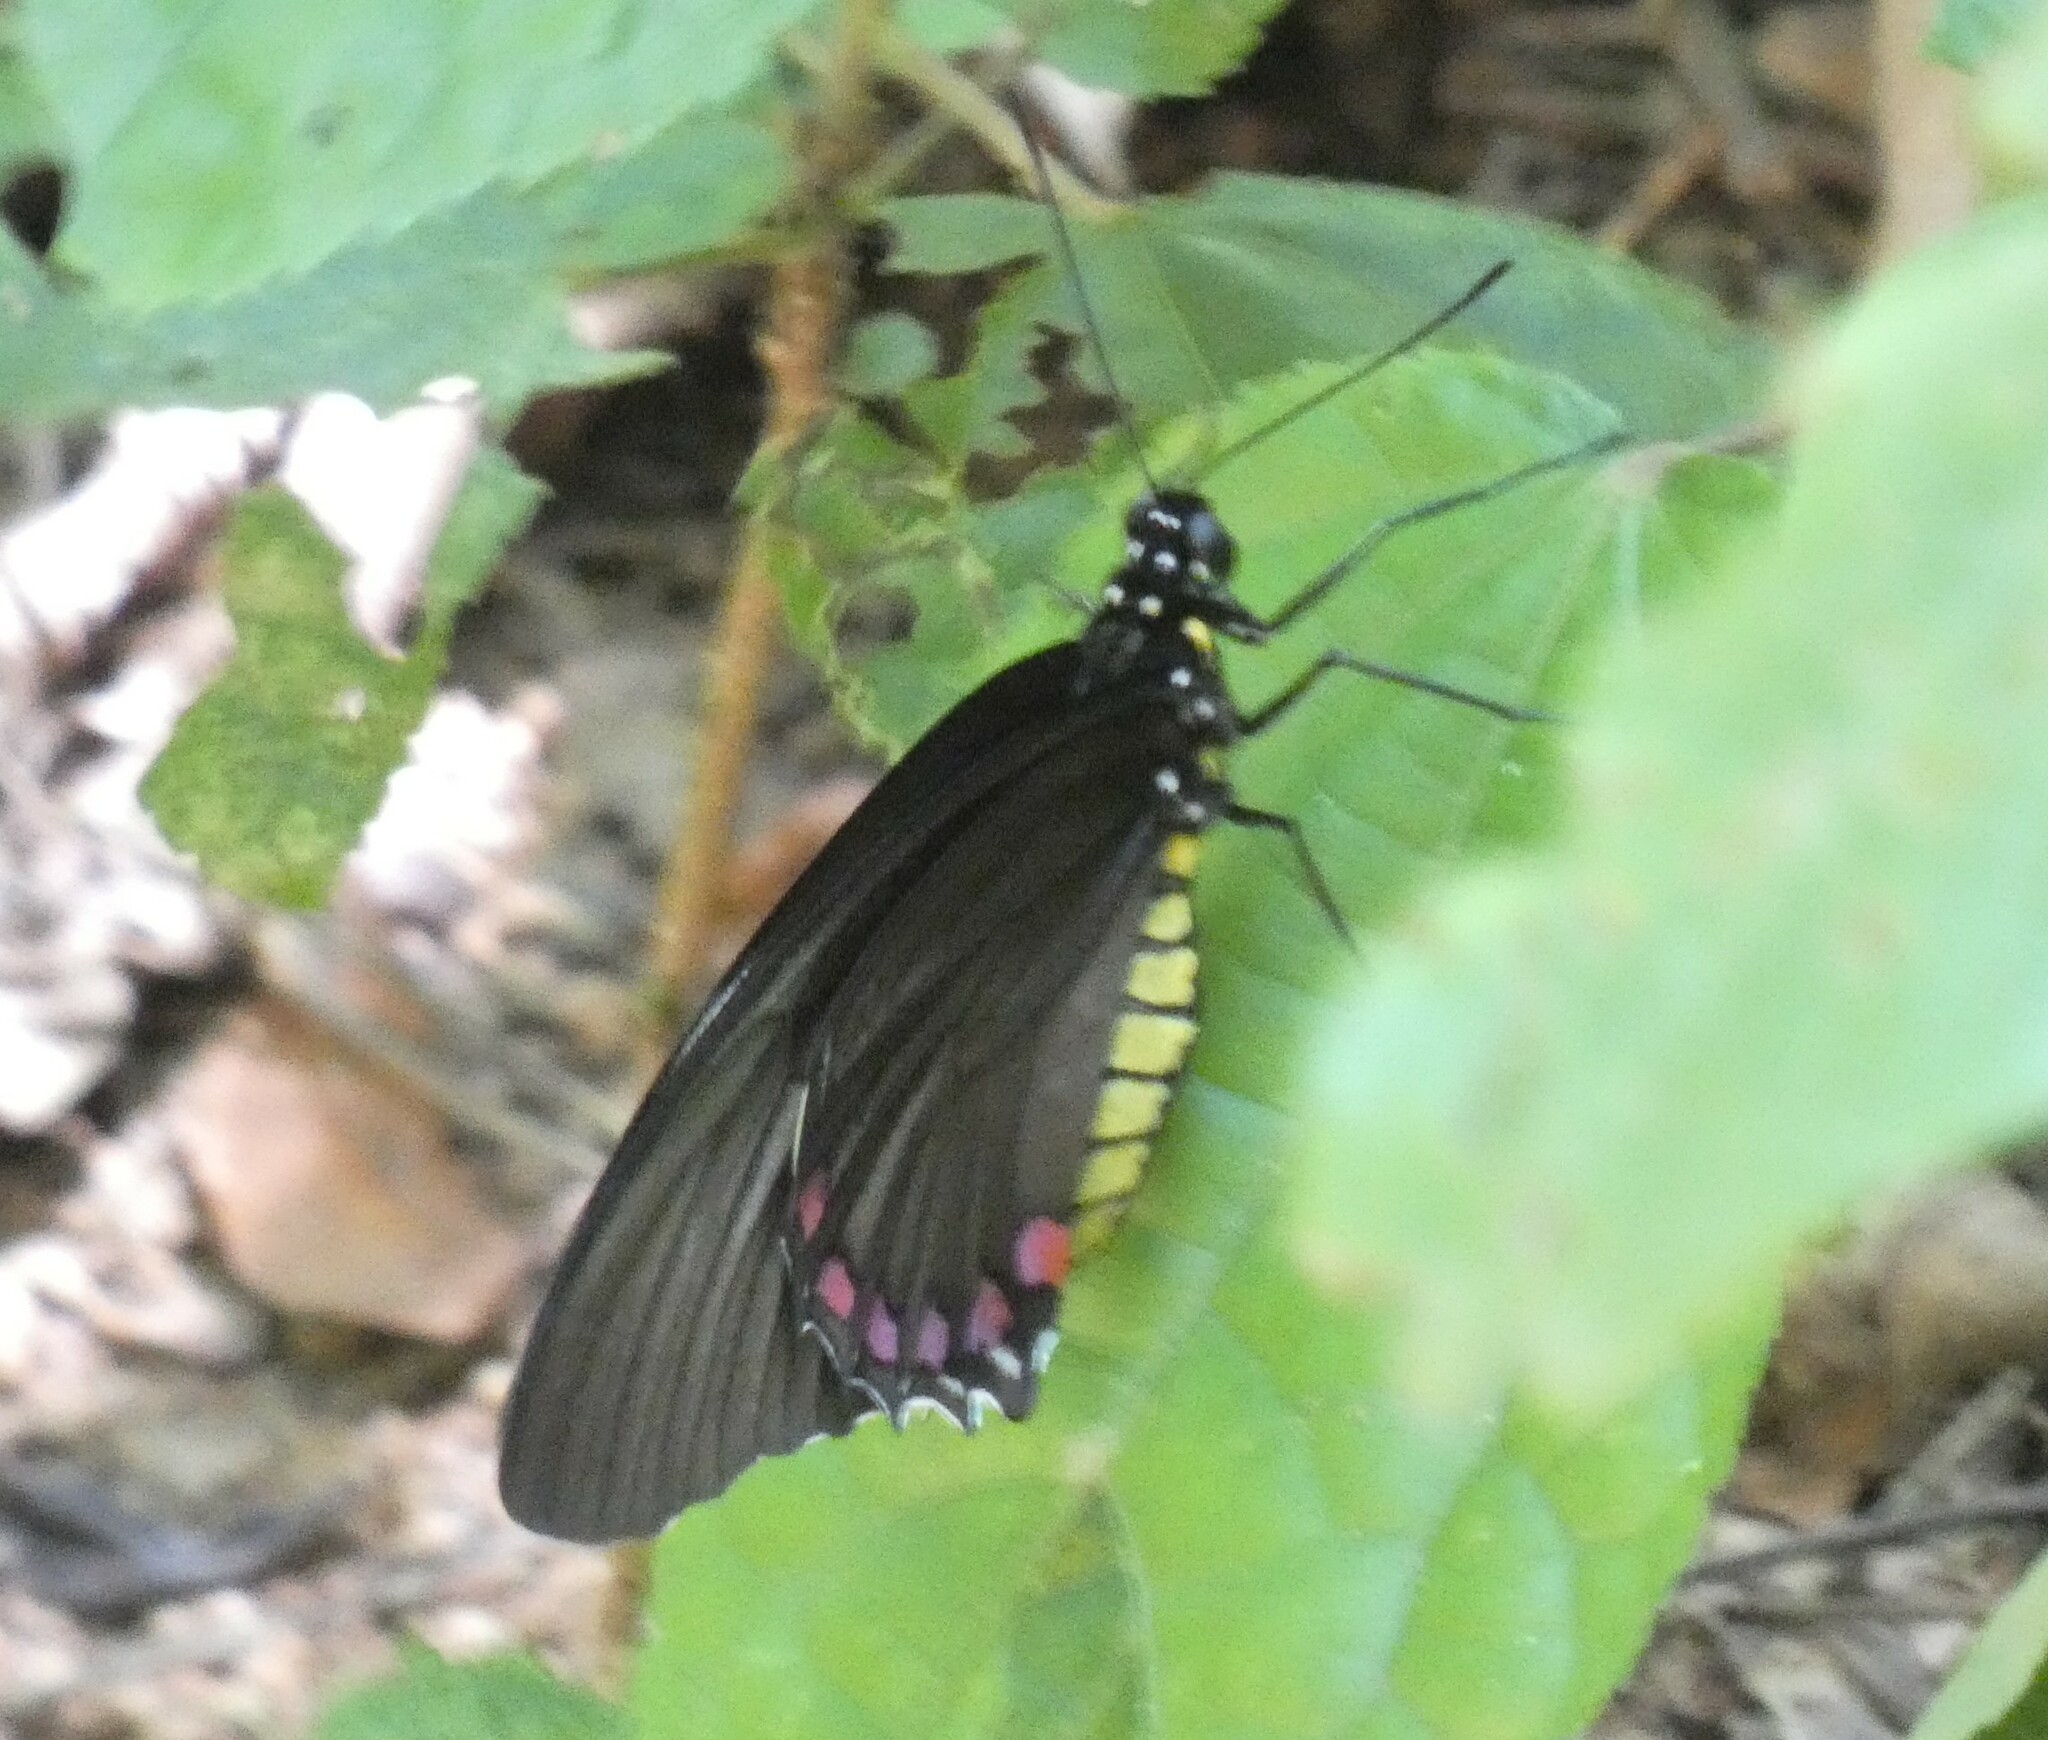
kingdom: Animalia
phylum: Arthropoda
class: Insecta
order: Lepidoptera
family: Papilionidae
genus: Battus
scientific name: Battus crassus
